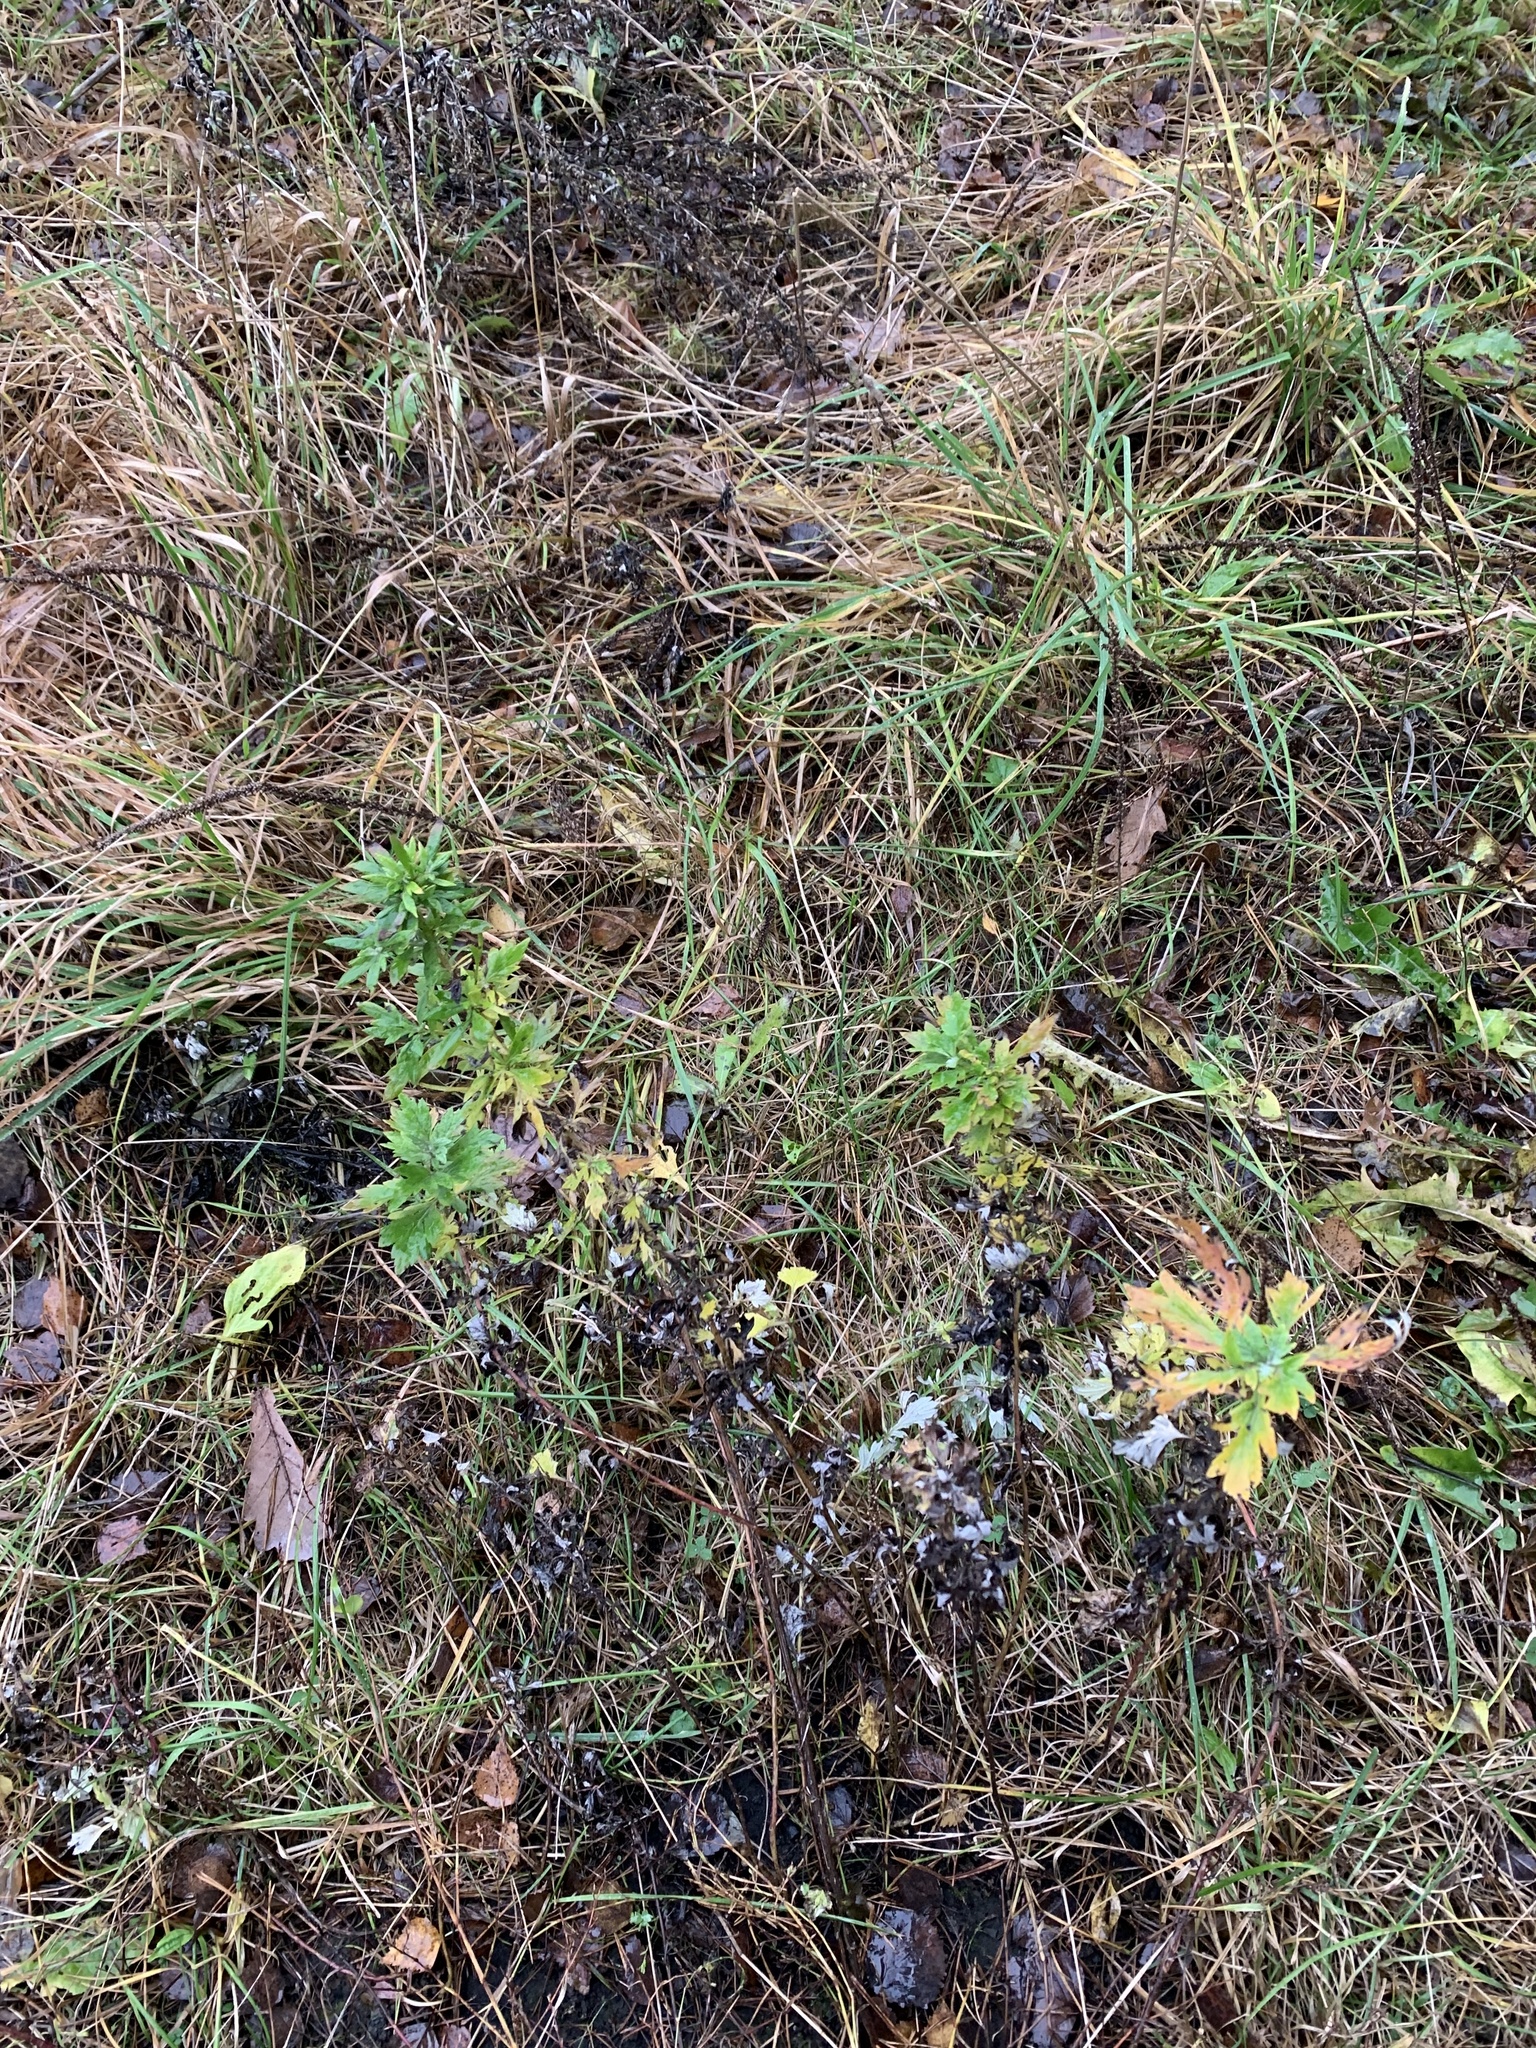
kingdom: Plantae
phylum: Tracheophyta
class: Magnoliopsida
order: Asterales
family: Asteraceae
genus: Artemisia
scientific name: Artemisia vulgaris
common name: Mugwort
